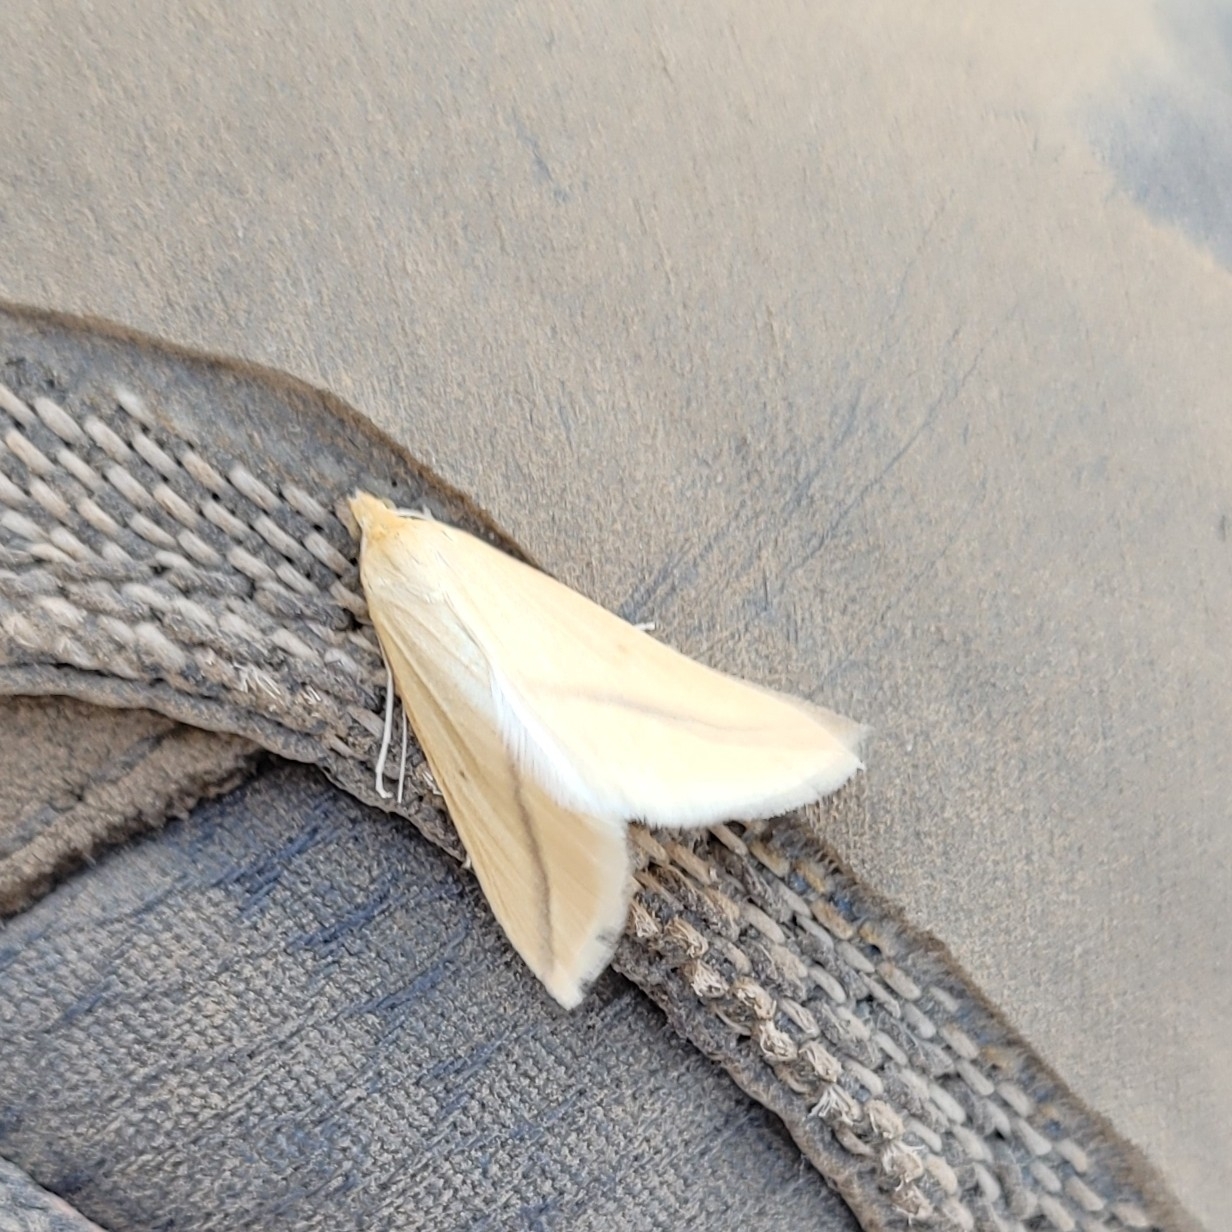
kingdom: Animalia
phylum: Arthropoda
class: Insecta
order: Lepidoptera
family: Geometridae
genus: Rhodometra
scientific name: Rhodometra sacraria
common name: Vestal
